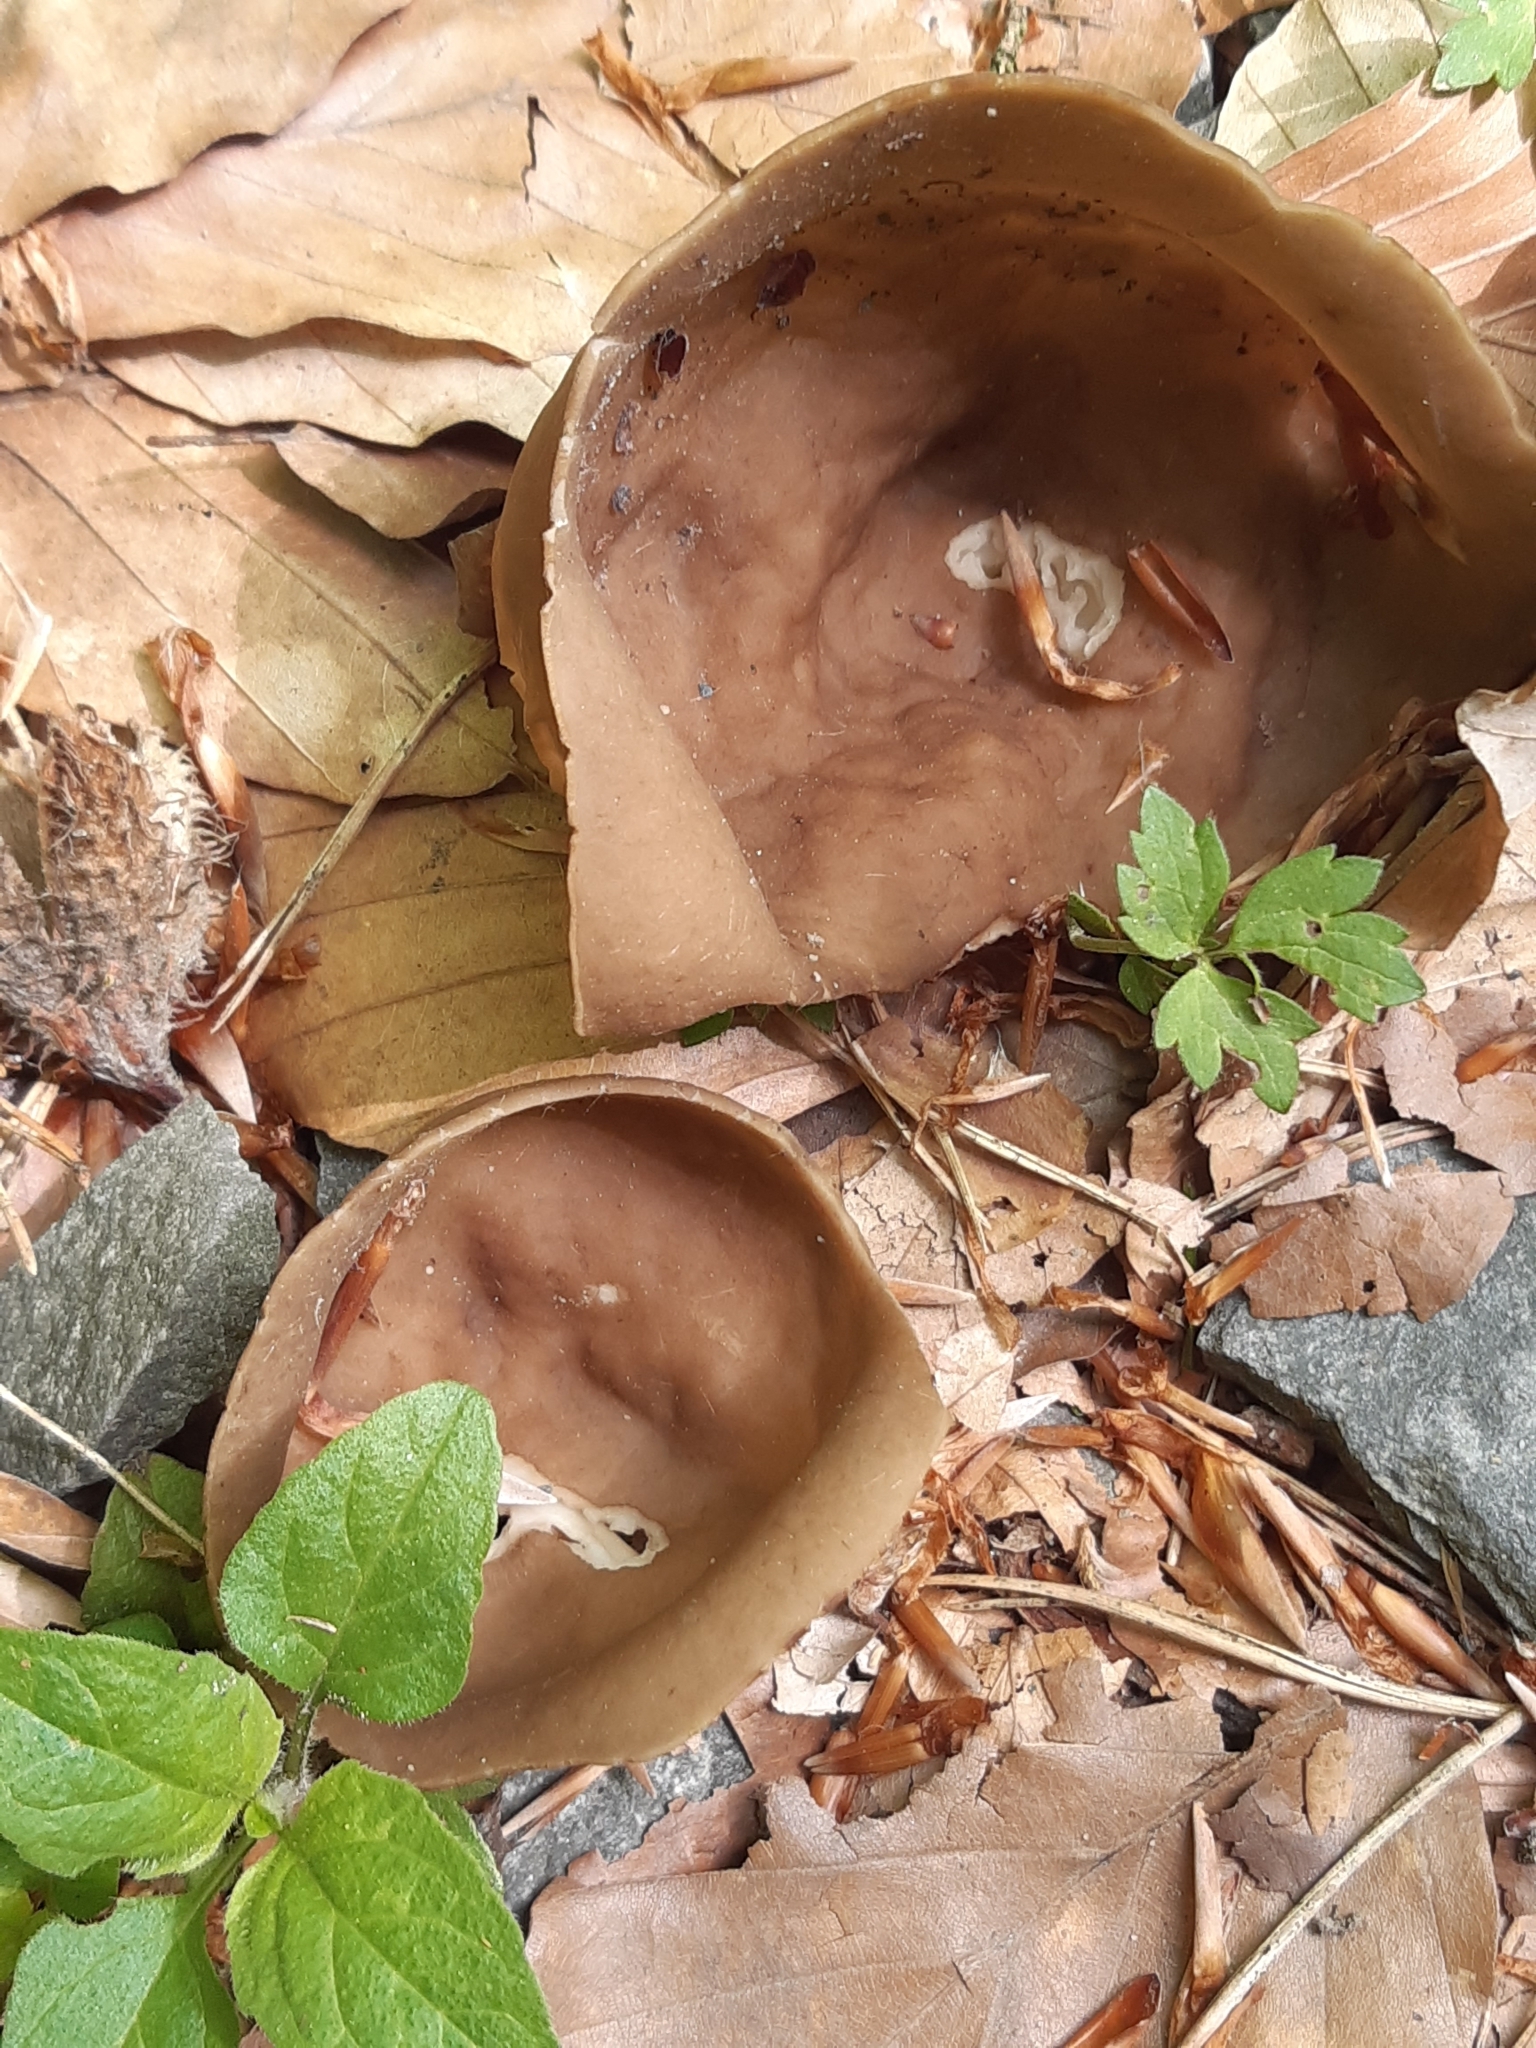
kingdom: Fungi
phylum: Ascomycota
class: Pezizomycetes
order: Pezizales
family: Helvellaceae
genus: Helvella
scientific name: Helvella acetabulum
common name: Vinegar cup
